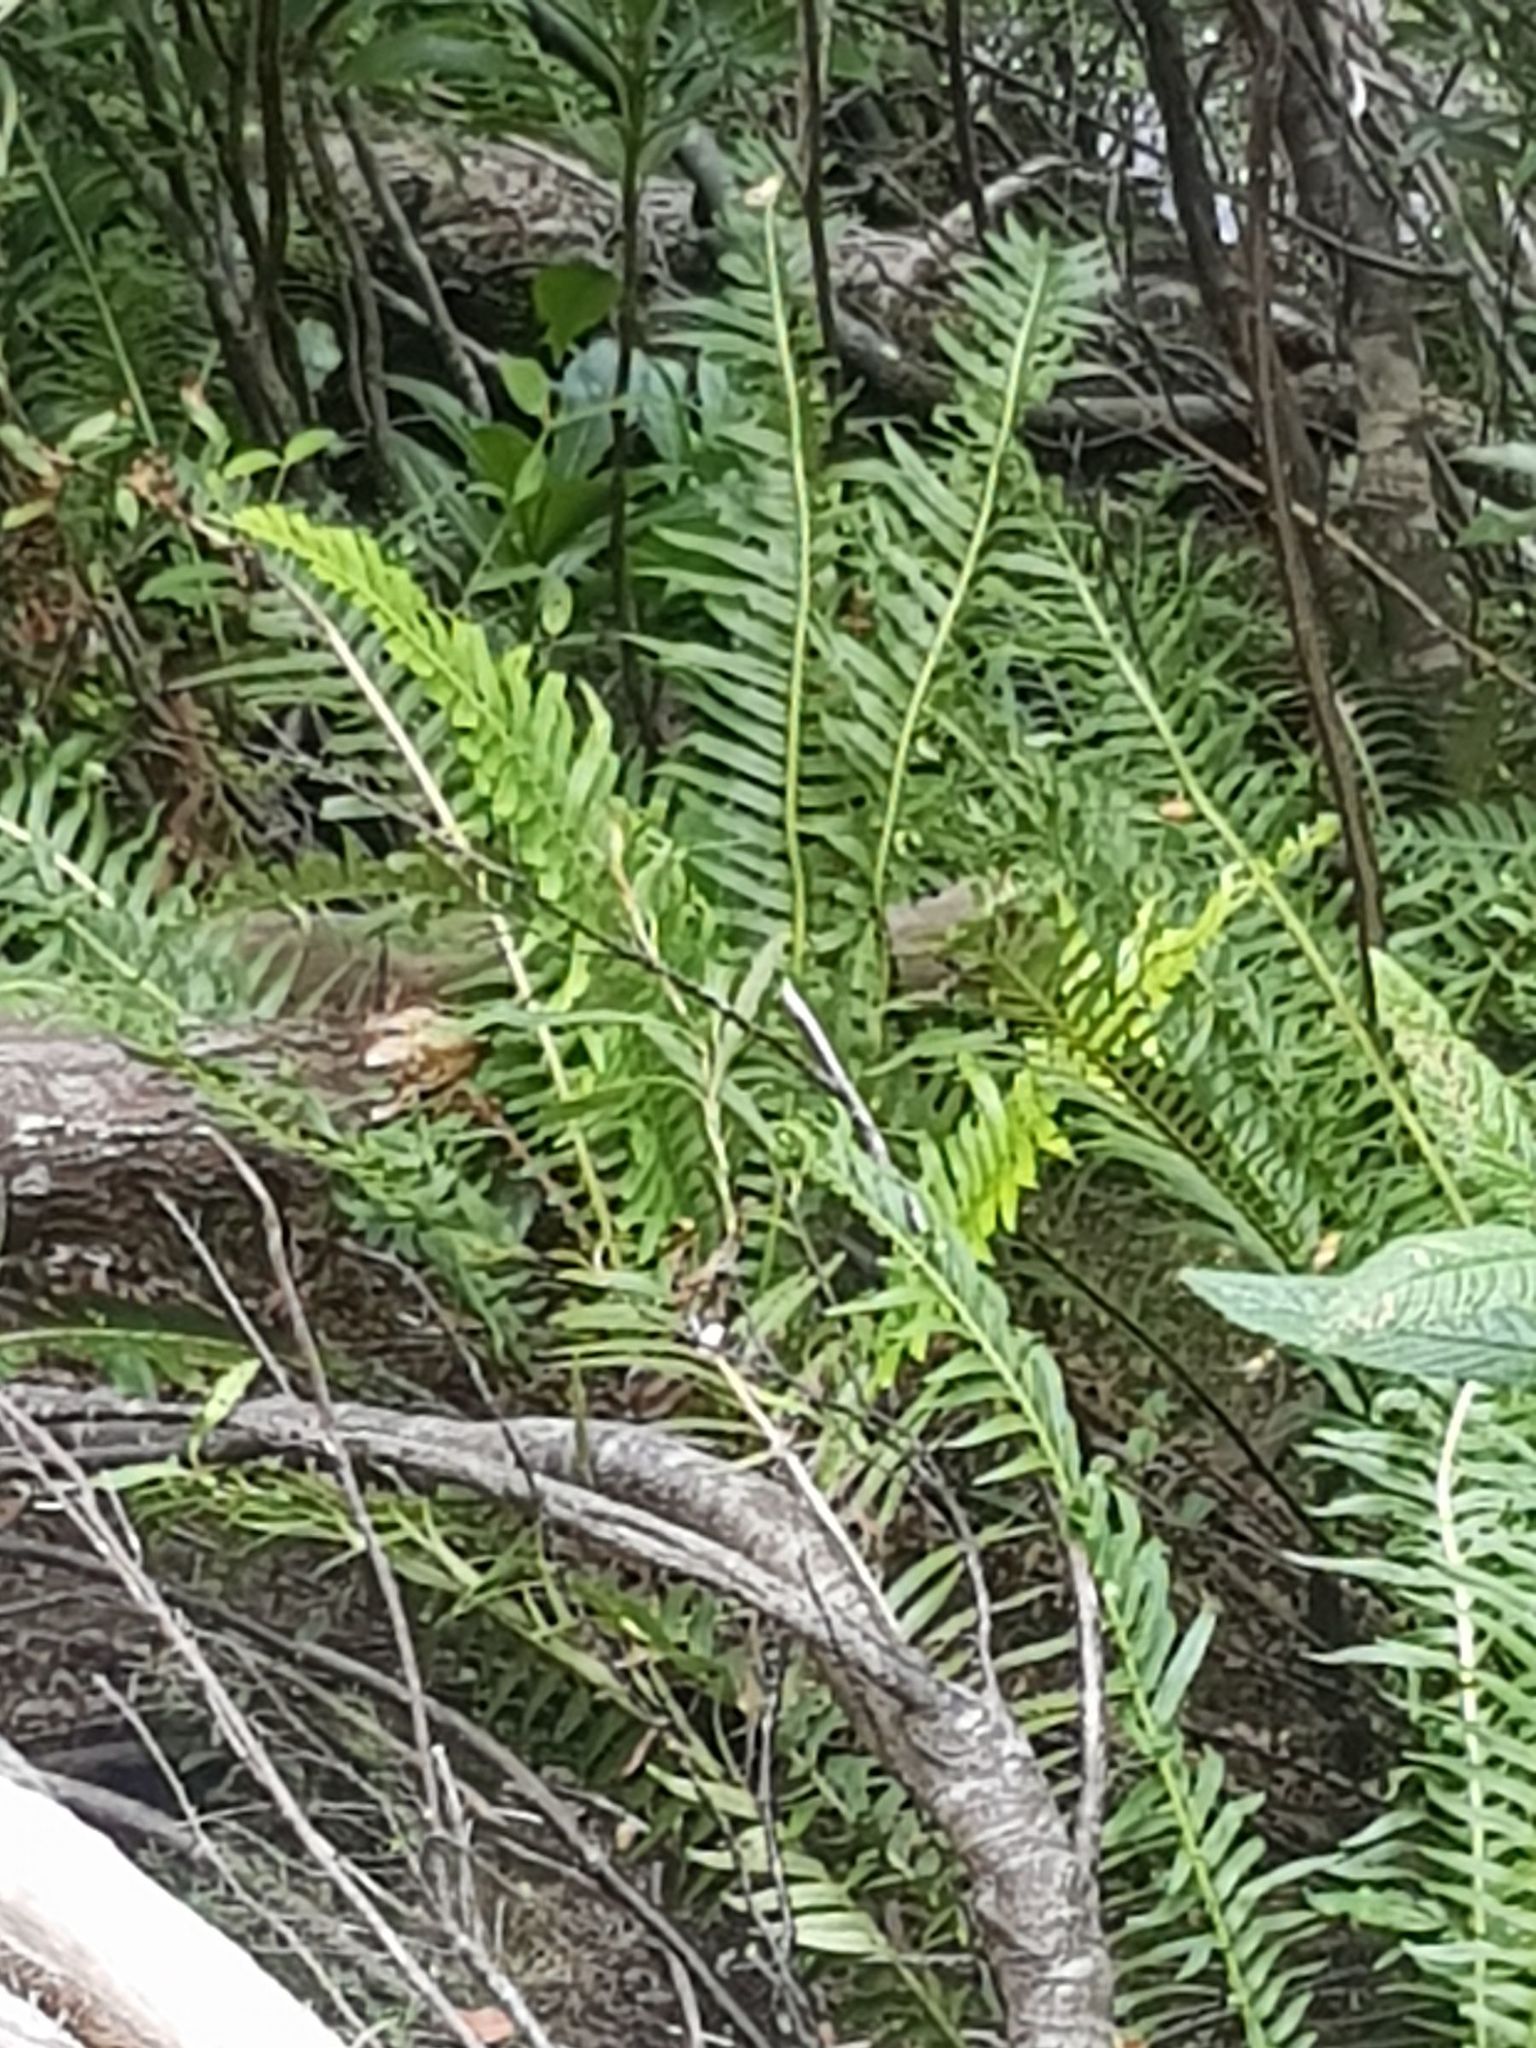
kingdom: Plantae
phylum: Tracheophyta
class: Polypodiopsida
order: Polypodiales
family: Blechnaceae
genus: Lomaria
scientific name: Lomaria nuda
